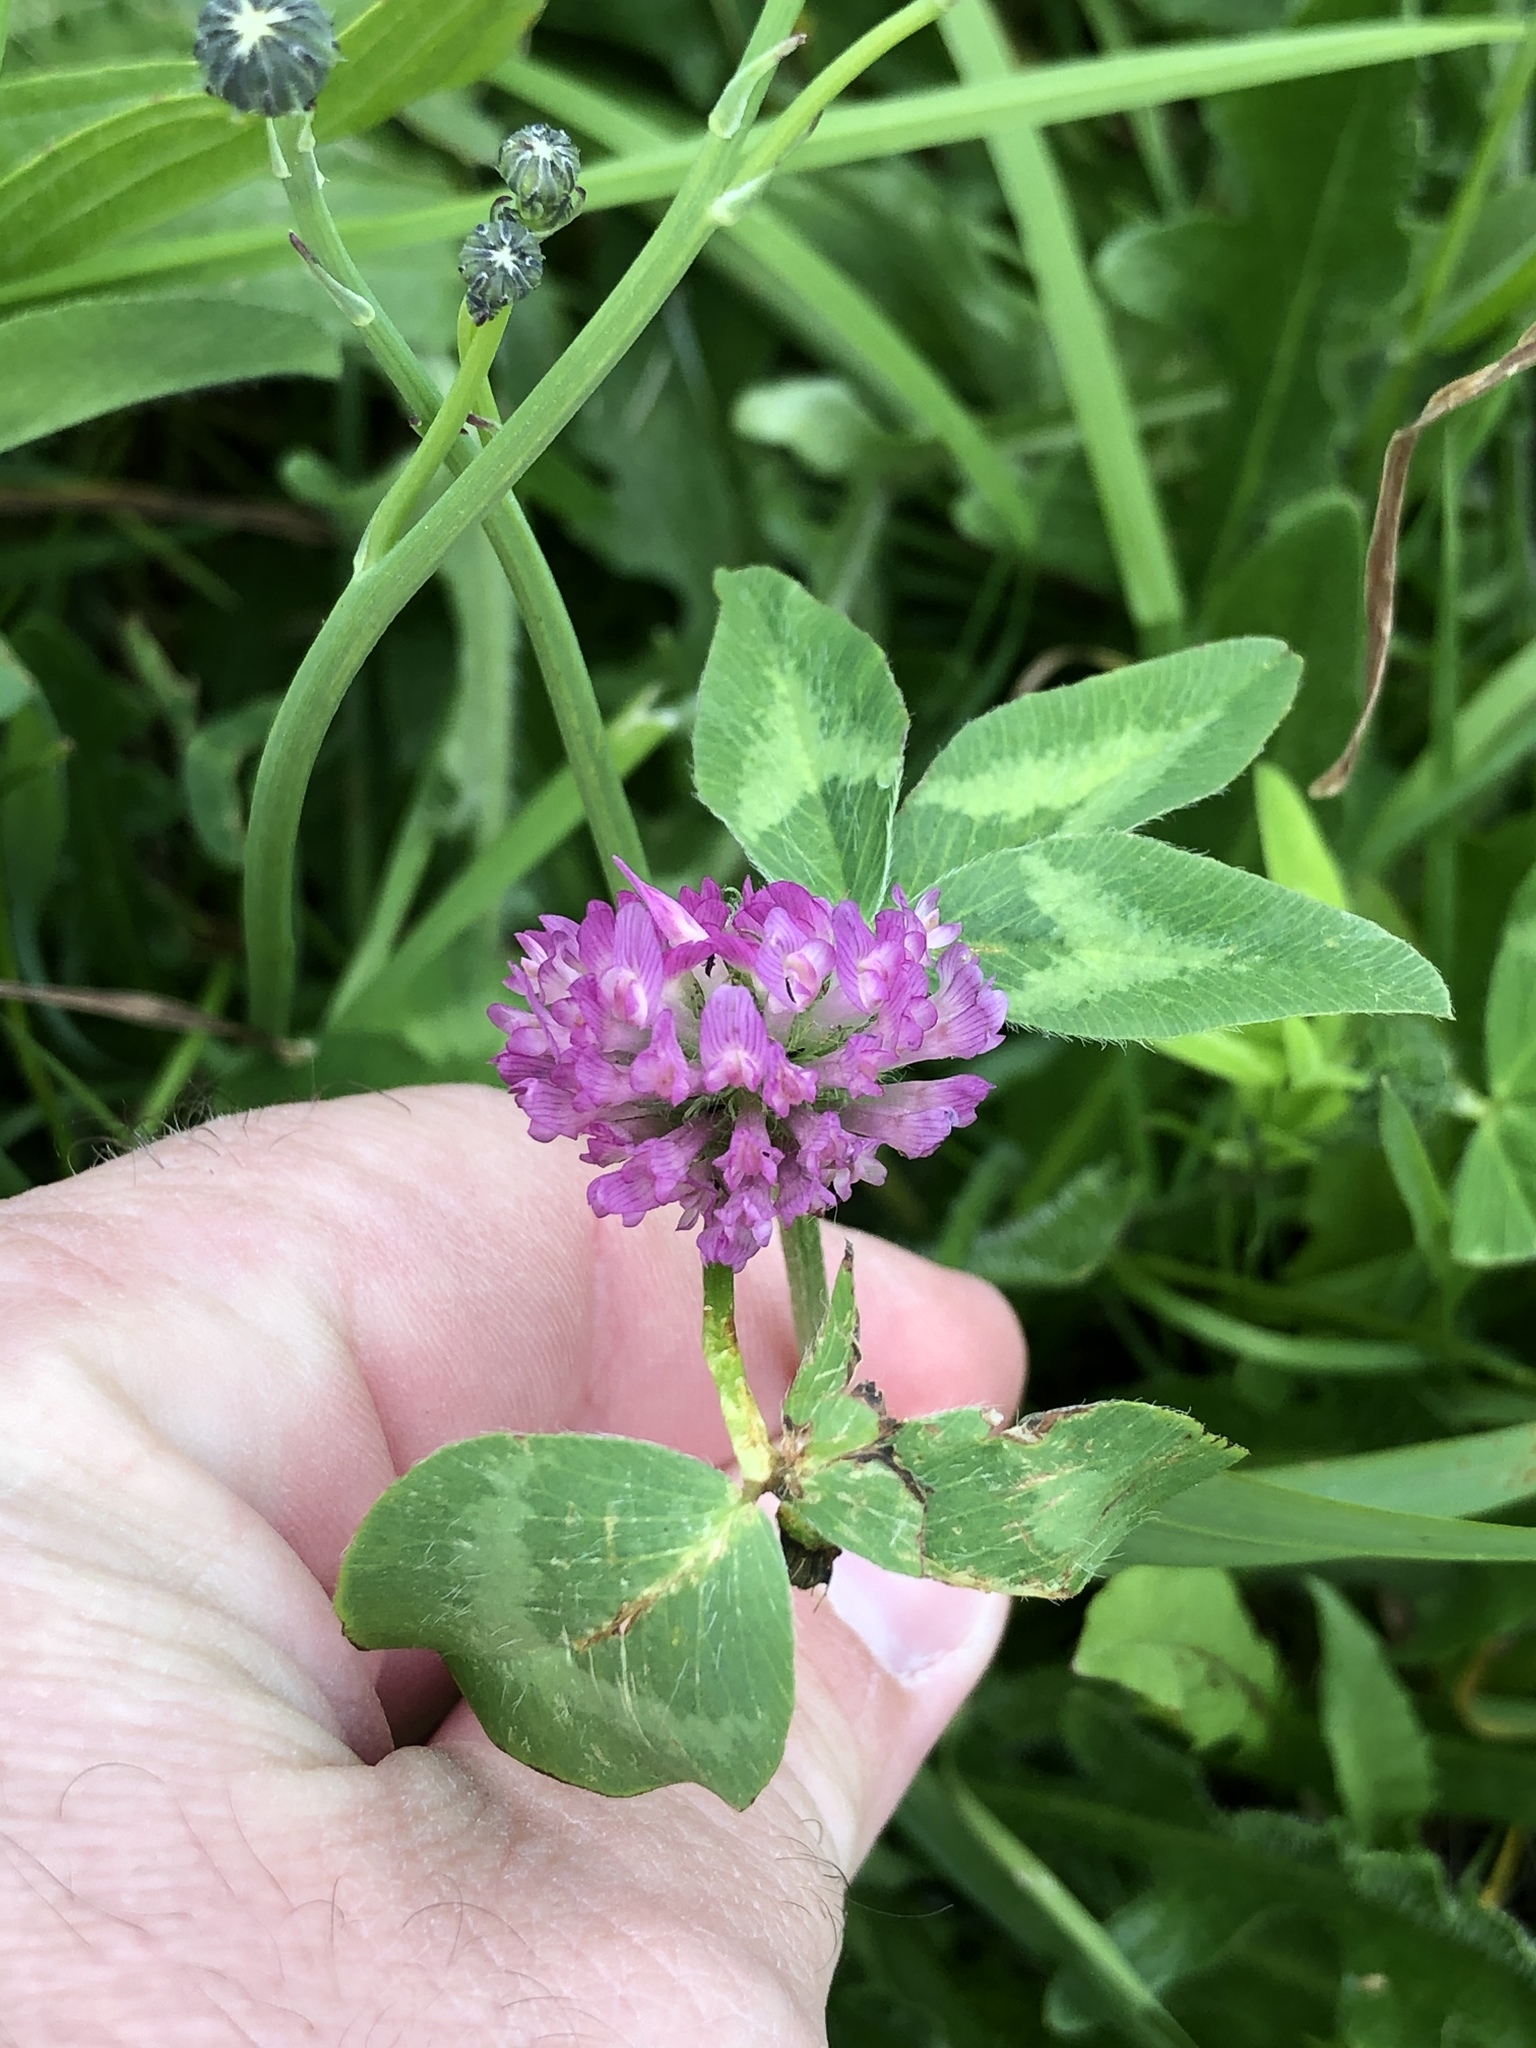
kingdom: Plantae
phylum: Tracheophyta
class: Magnoliopsida
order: Fabales
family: Fabaceae
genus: Trifolium
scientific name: Trifolium pratense
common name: Red clover
